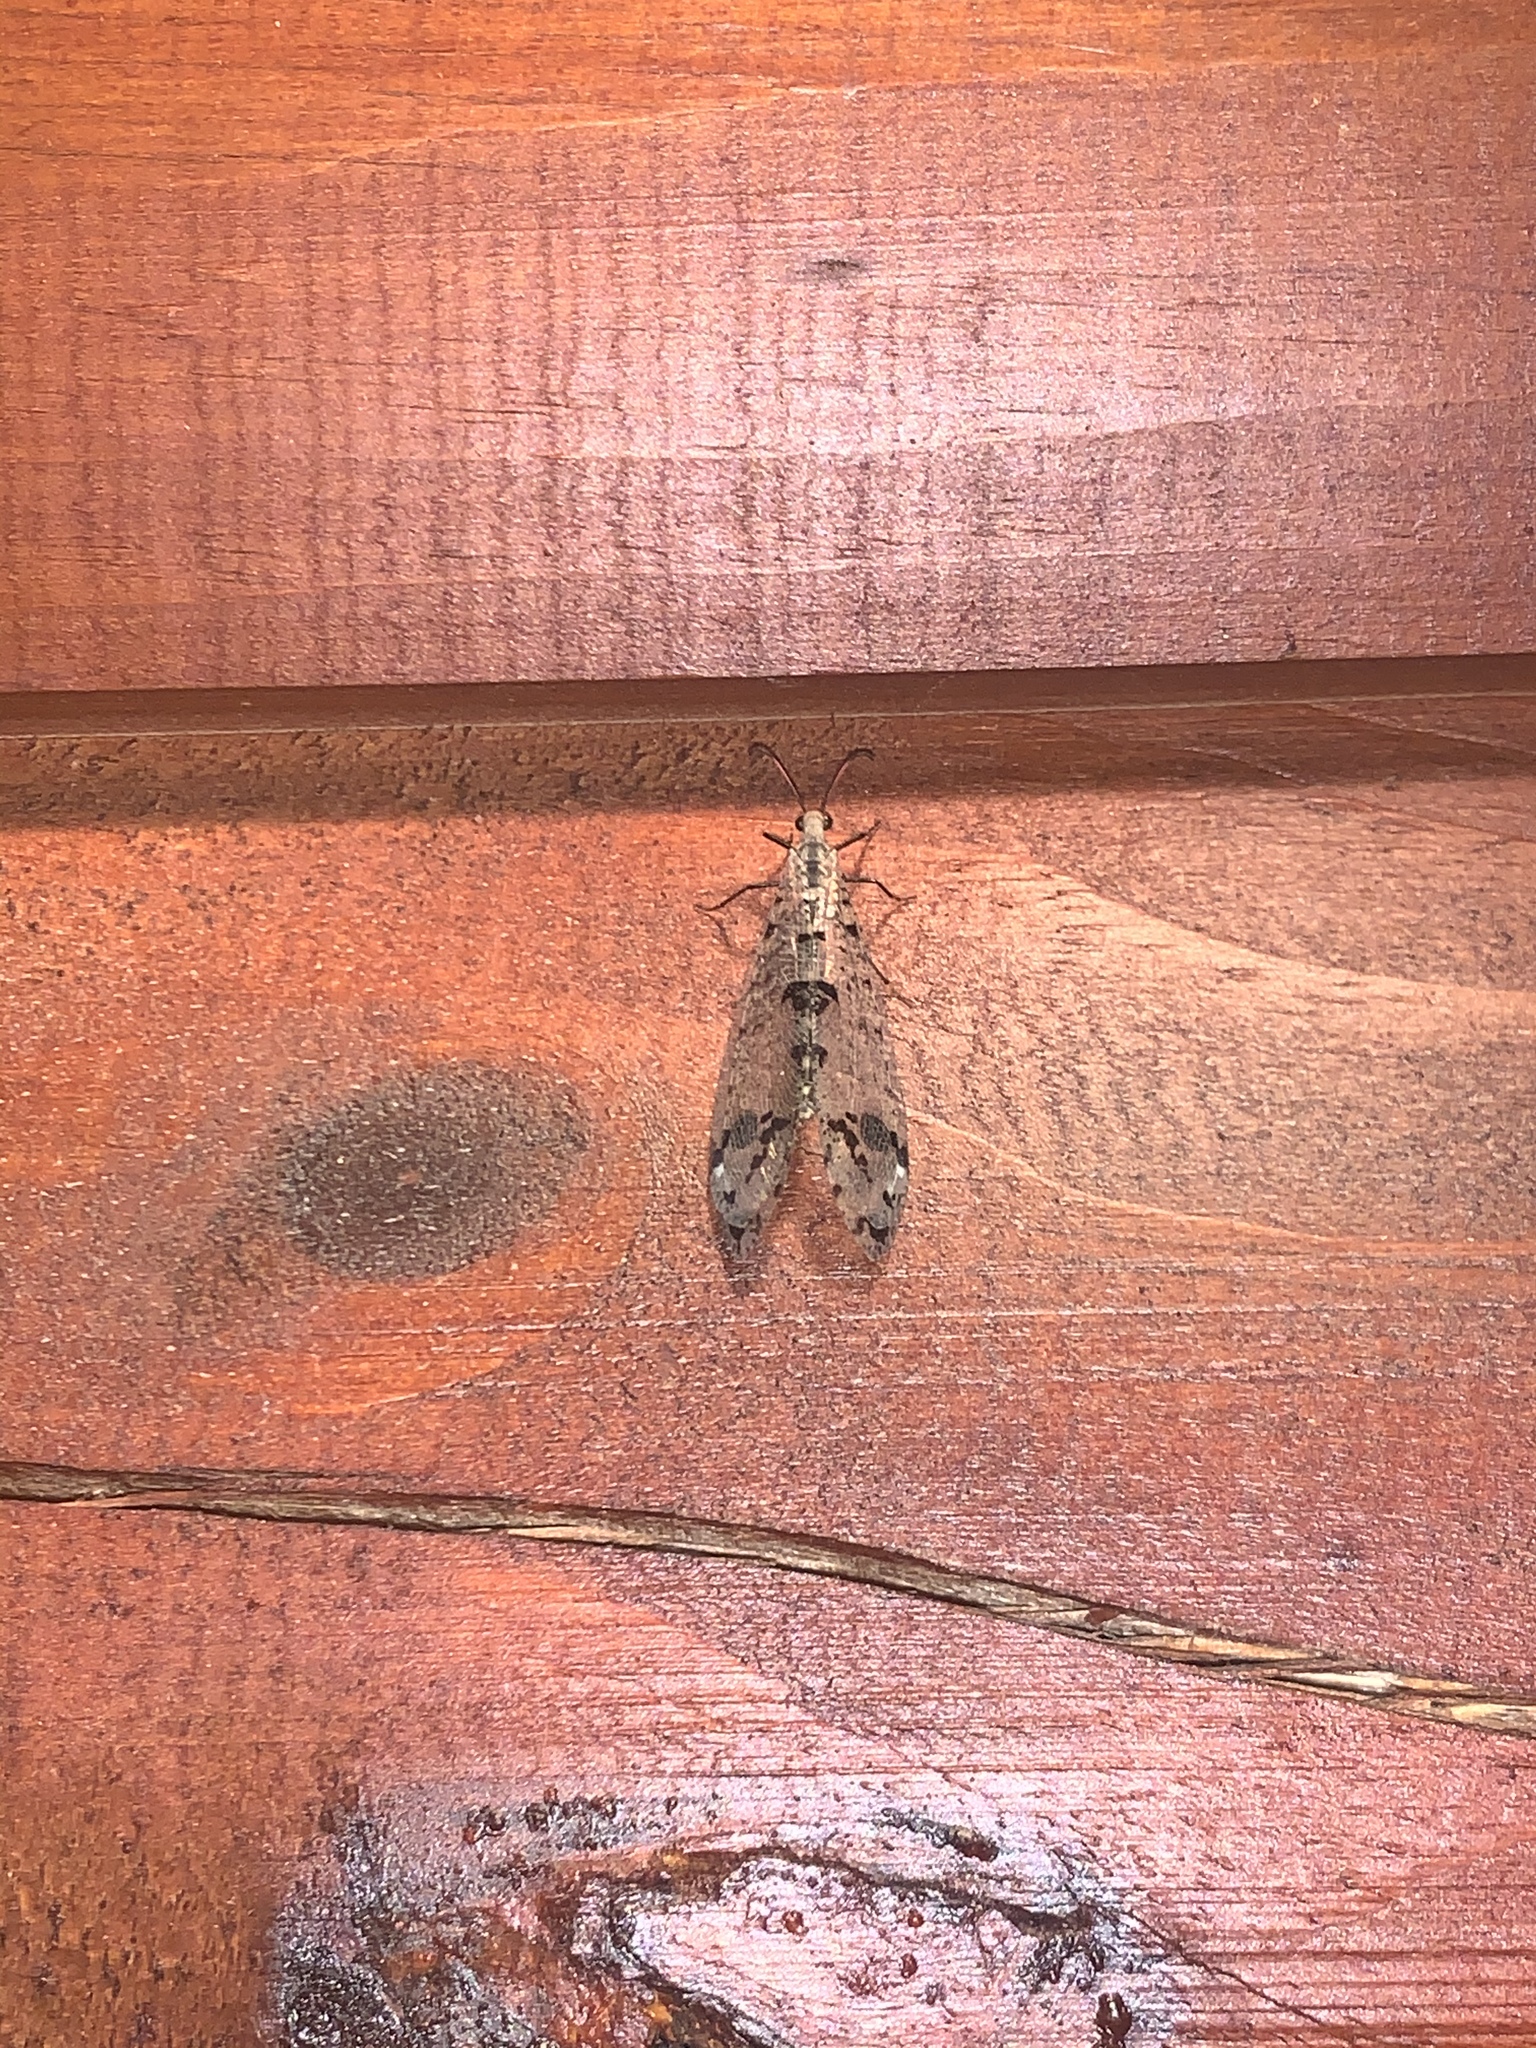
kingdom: Animalia
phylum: Arthropoda
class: Insecta
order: Neuroptera
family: Myrmeleontidae
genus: Dendroleon
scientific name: Dendroleon obsoletus
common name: Eastern spotted-winged antlion
